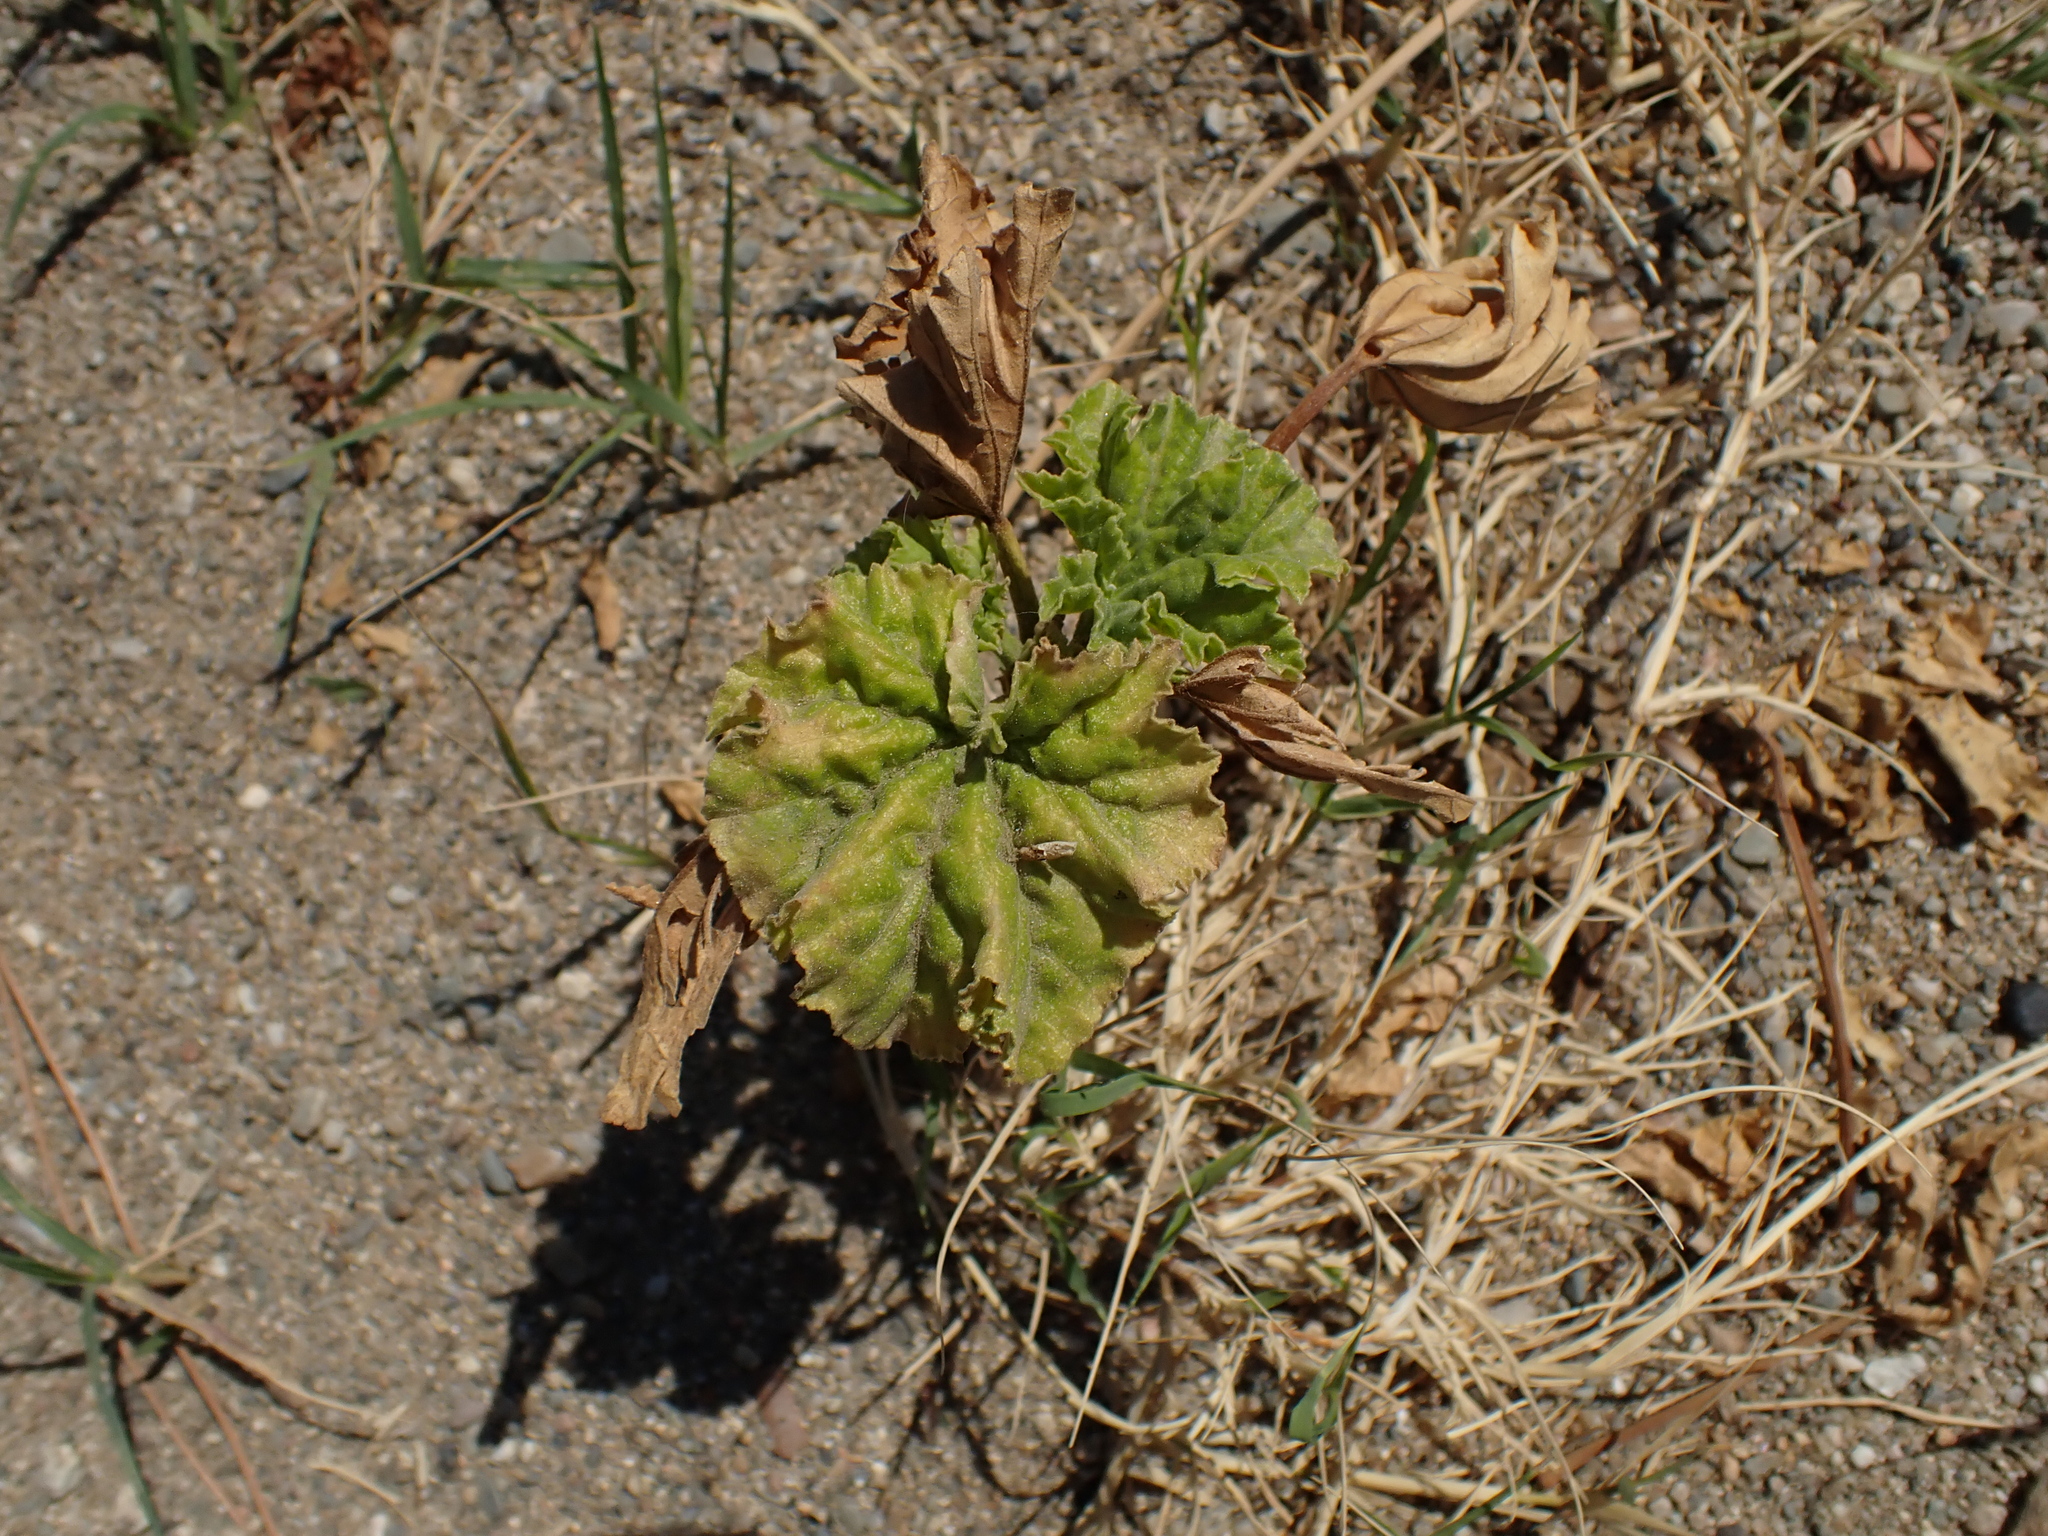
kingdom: Plantae
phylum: Tracheophyta
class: Magnoliopsida
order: Malvales
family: Malvaceae
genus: Malva
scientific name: Malva arborea
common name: Tree mallow
